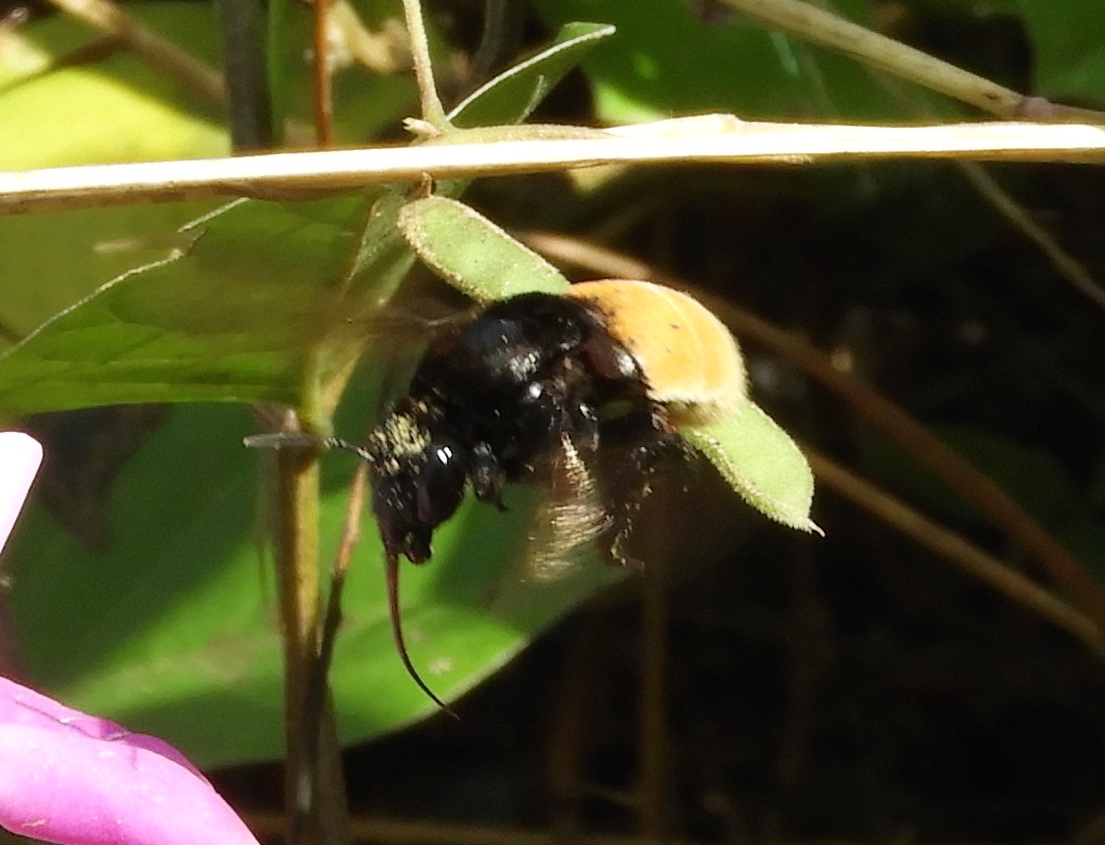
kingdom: Animalia
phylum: Arthropoda
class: Insecta
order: Hymenoptera
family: Apidae
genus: Eulaema
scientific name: Eulaema polychroma
